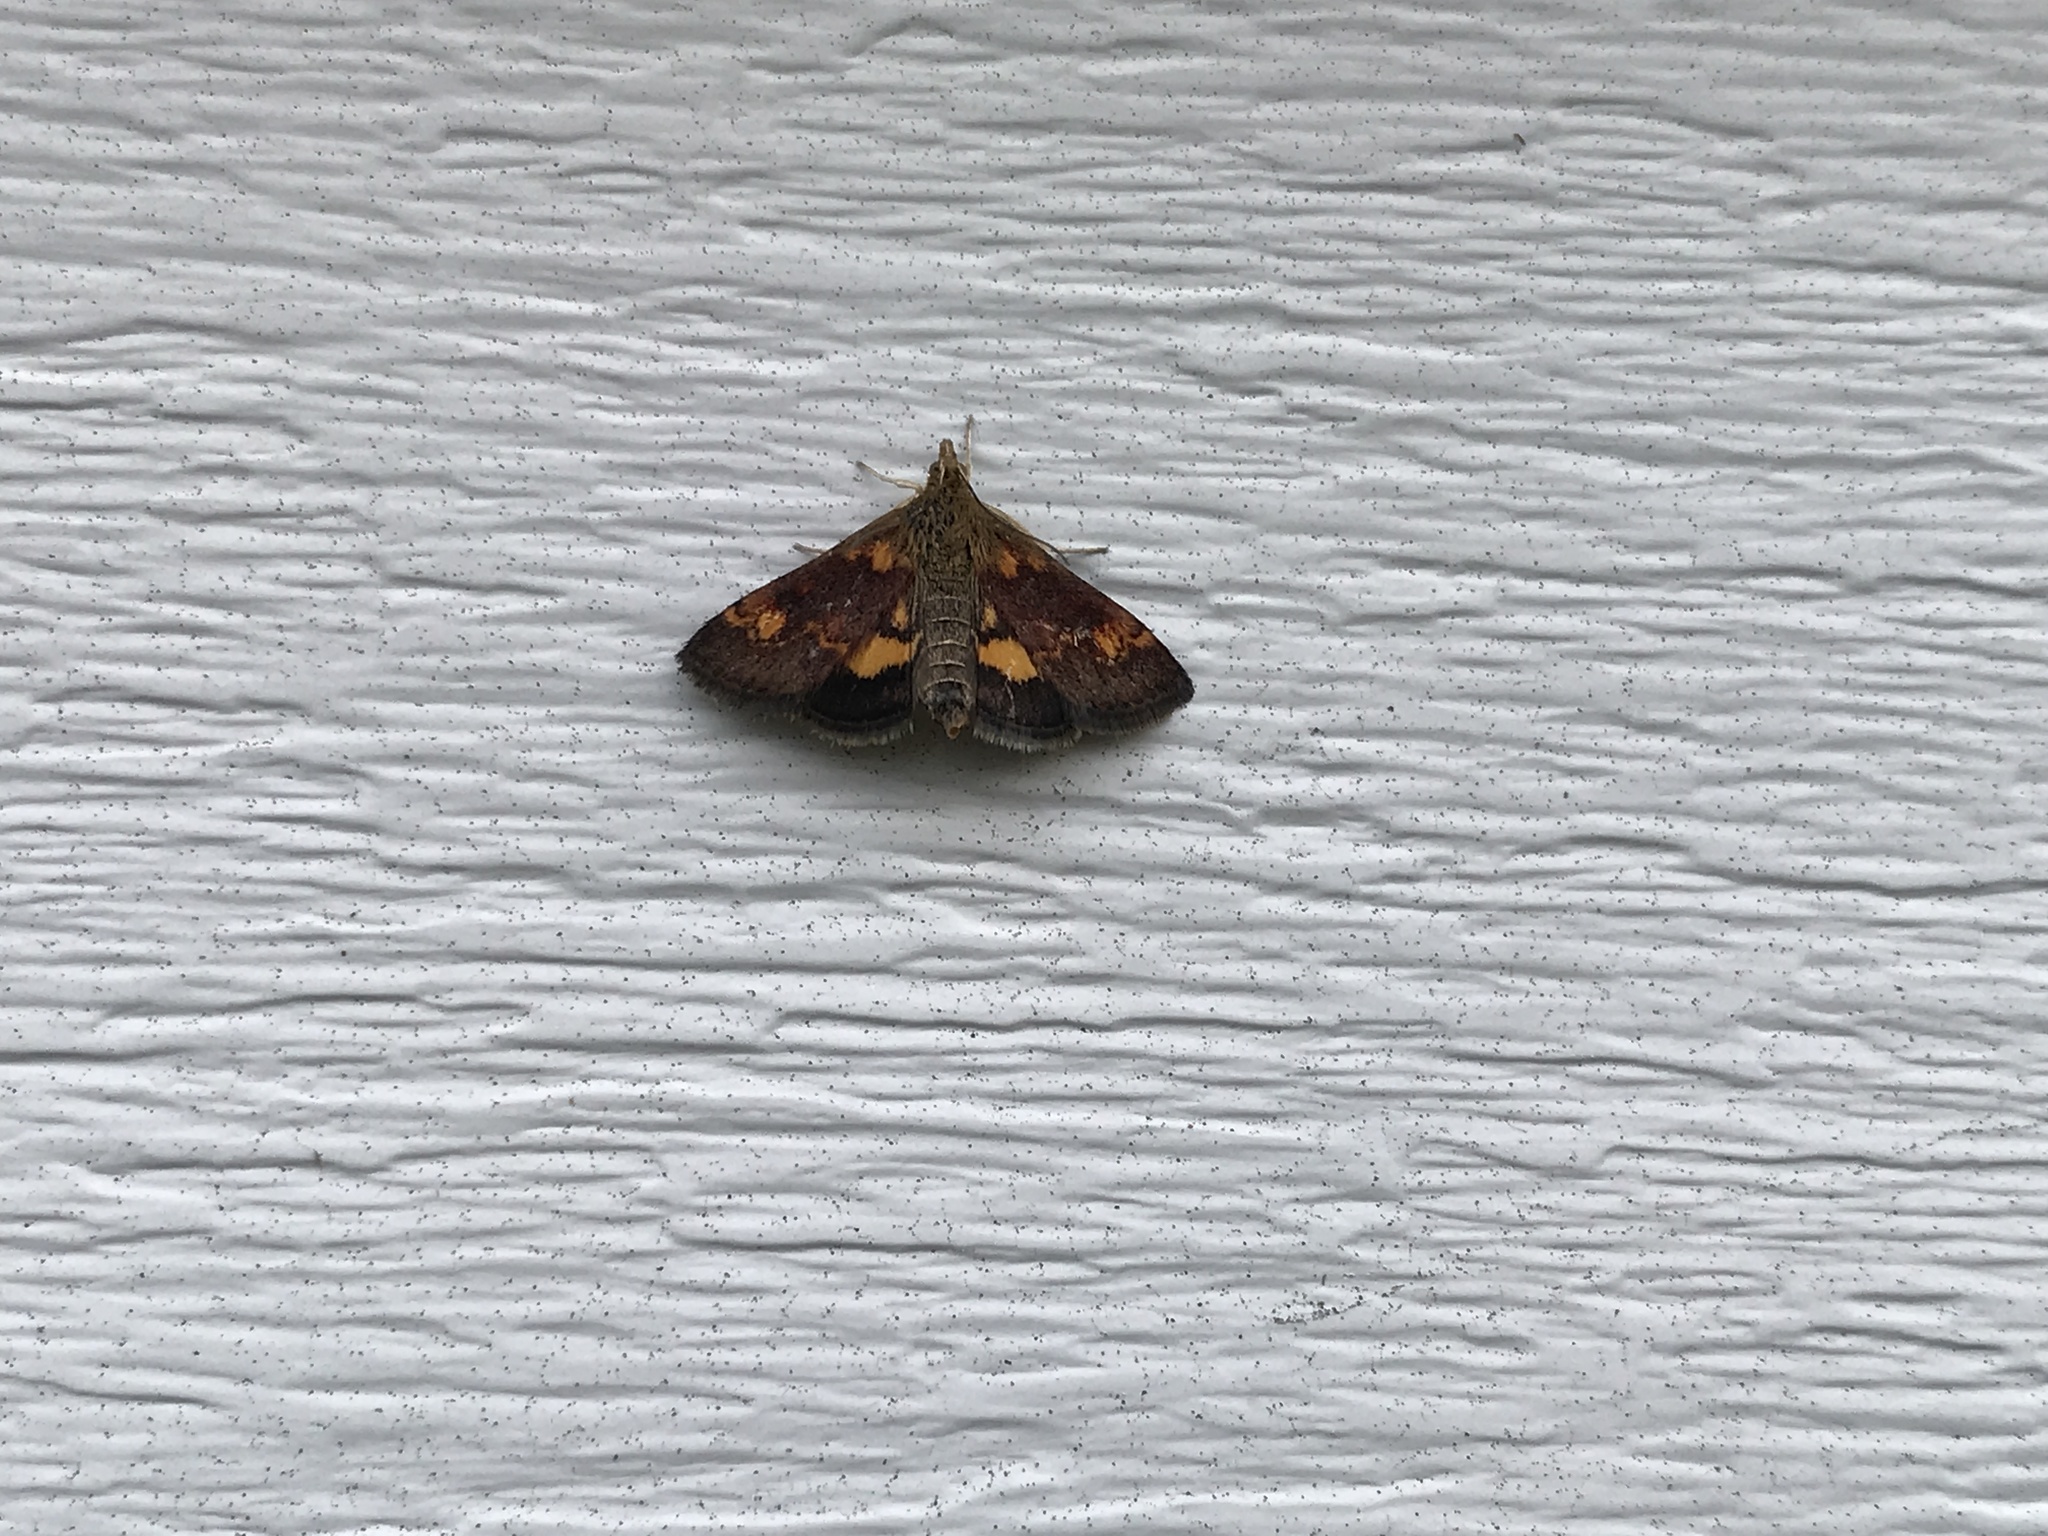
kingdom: Animalia
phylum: Arthropoda
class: Insecta
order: Lepidoptera
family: Crambidae
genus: Pyrausta
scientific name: Pyrausta orphisalis
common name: Orange mint moth
